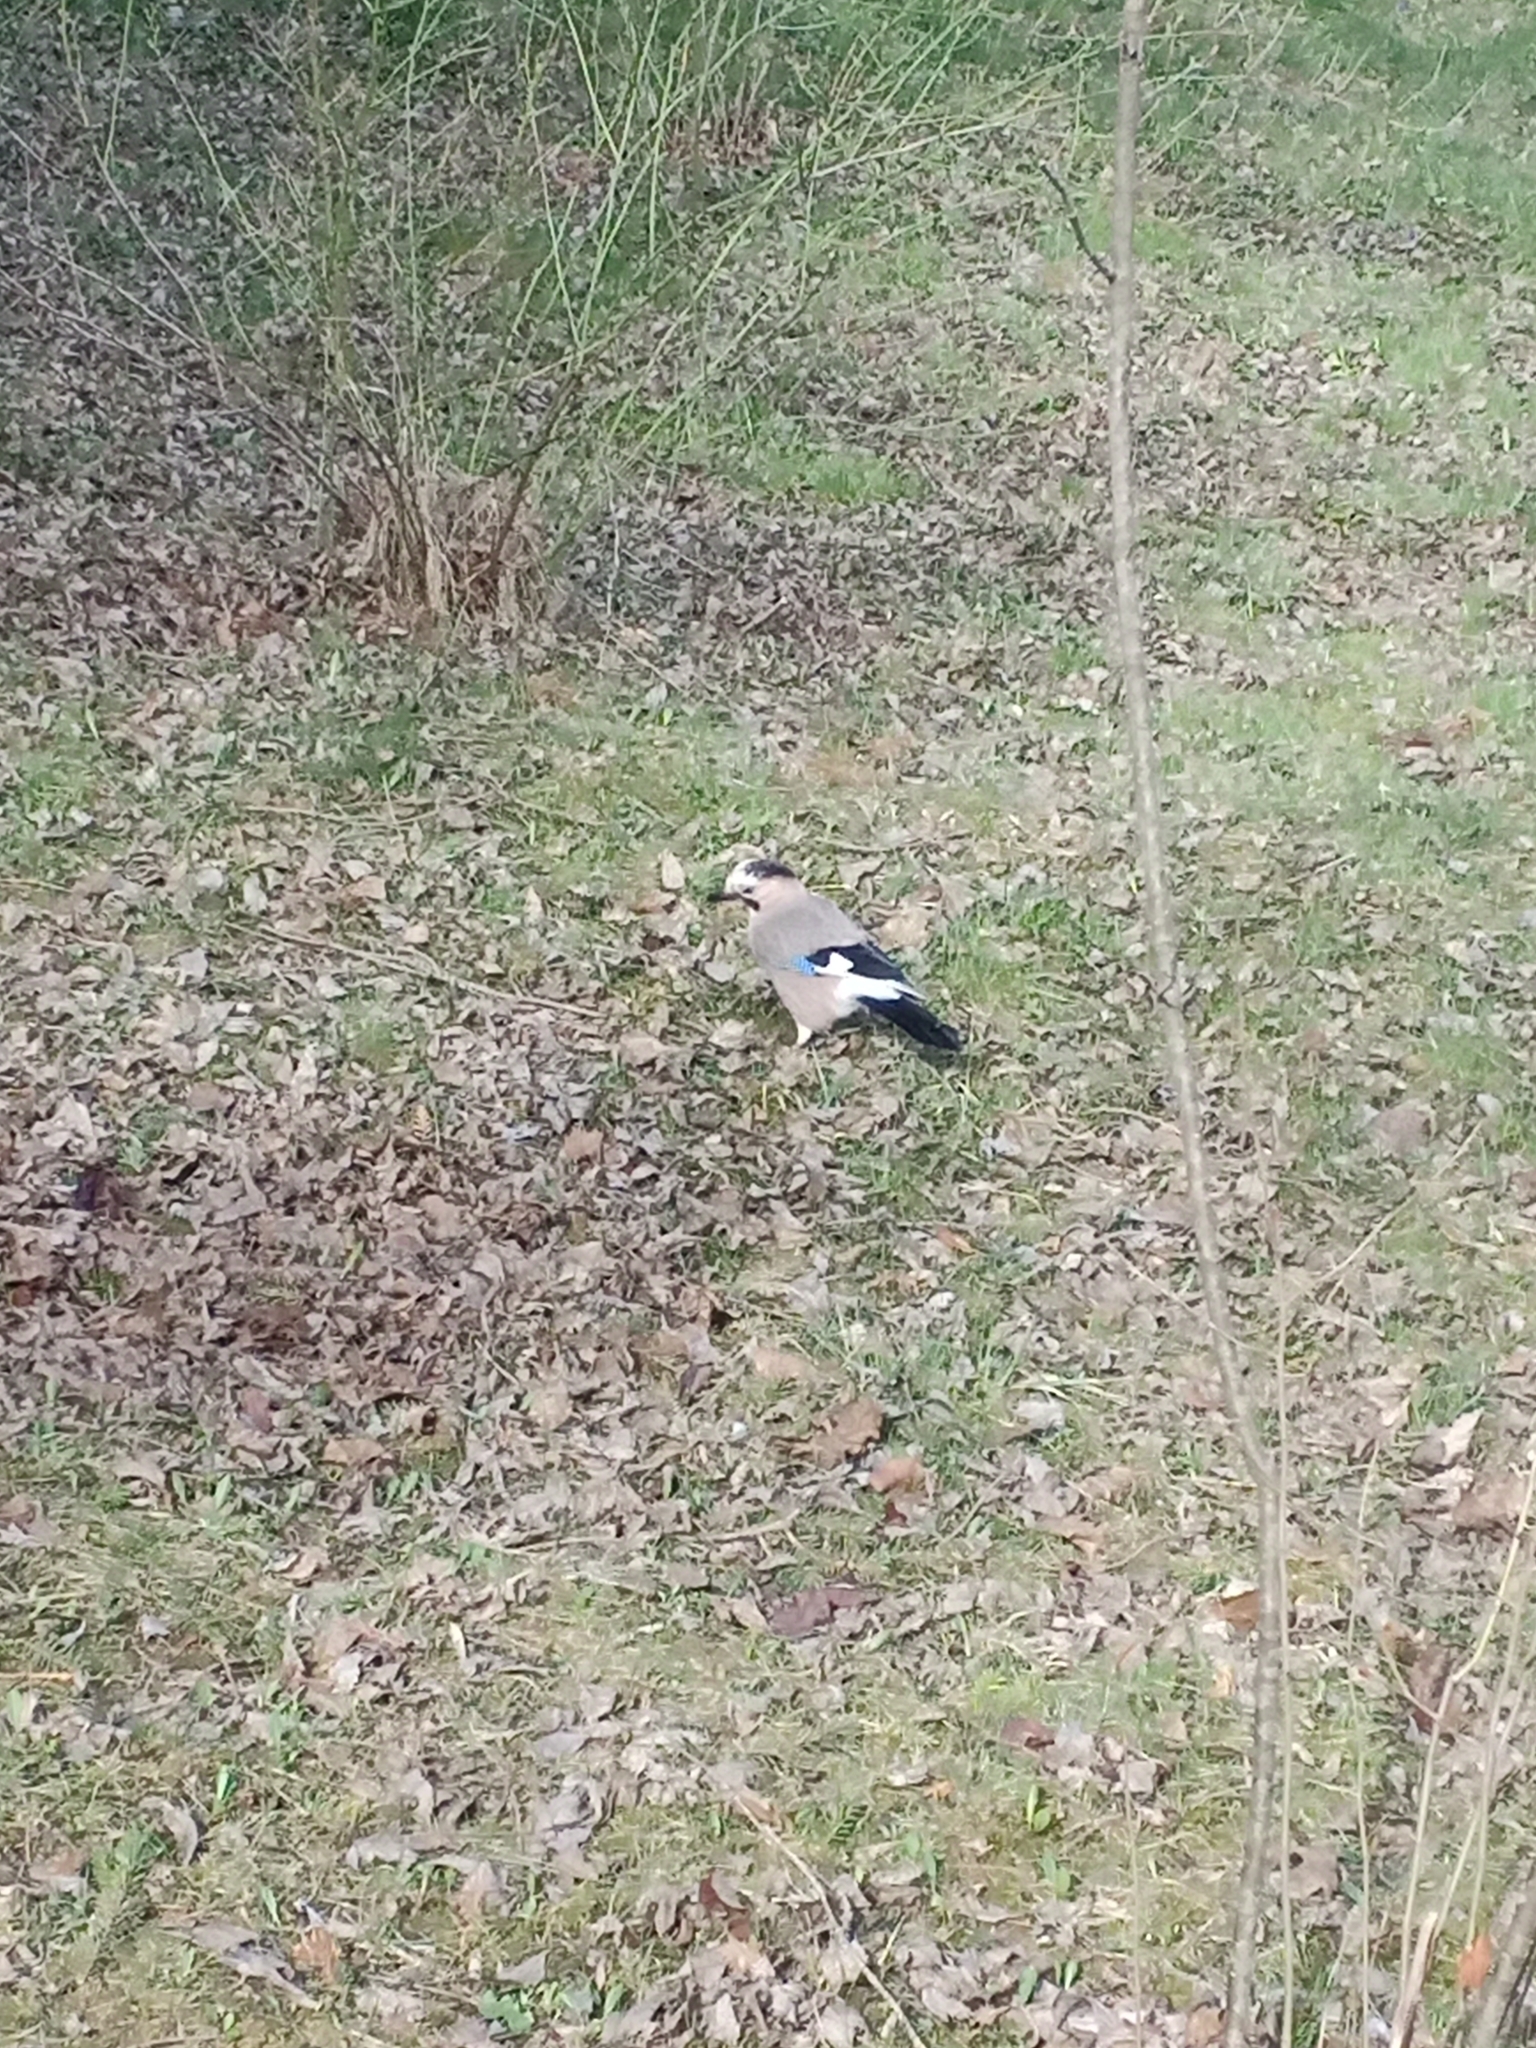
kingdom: Animalia
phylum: Chordata
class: Aves
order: Passeriformes
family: Corvidae
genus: Garrulus
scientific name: Garrulus glandarius
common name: Eurasian jay
